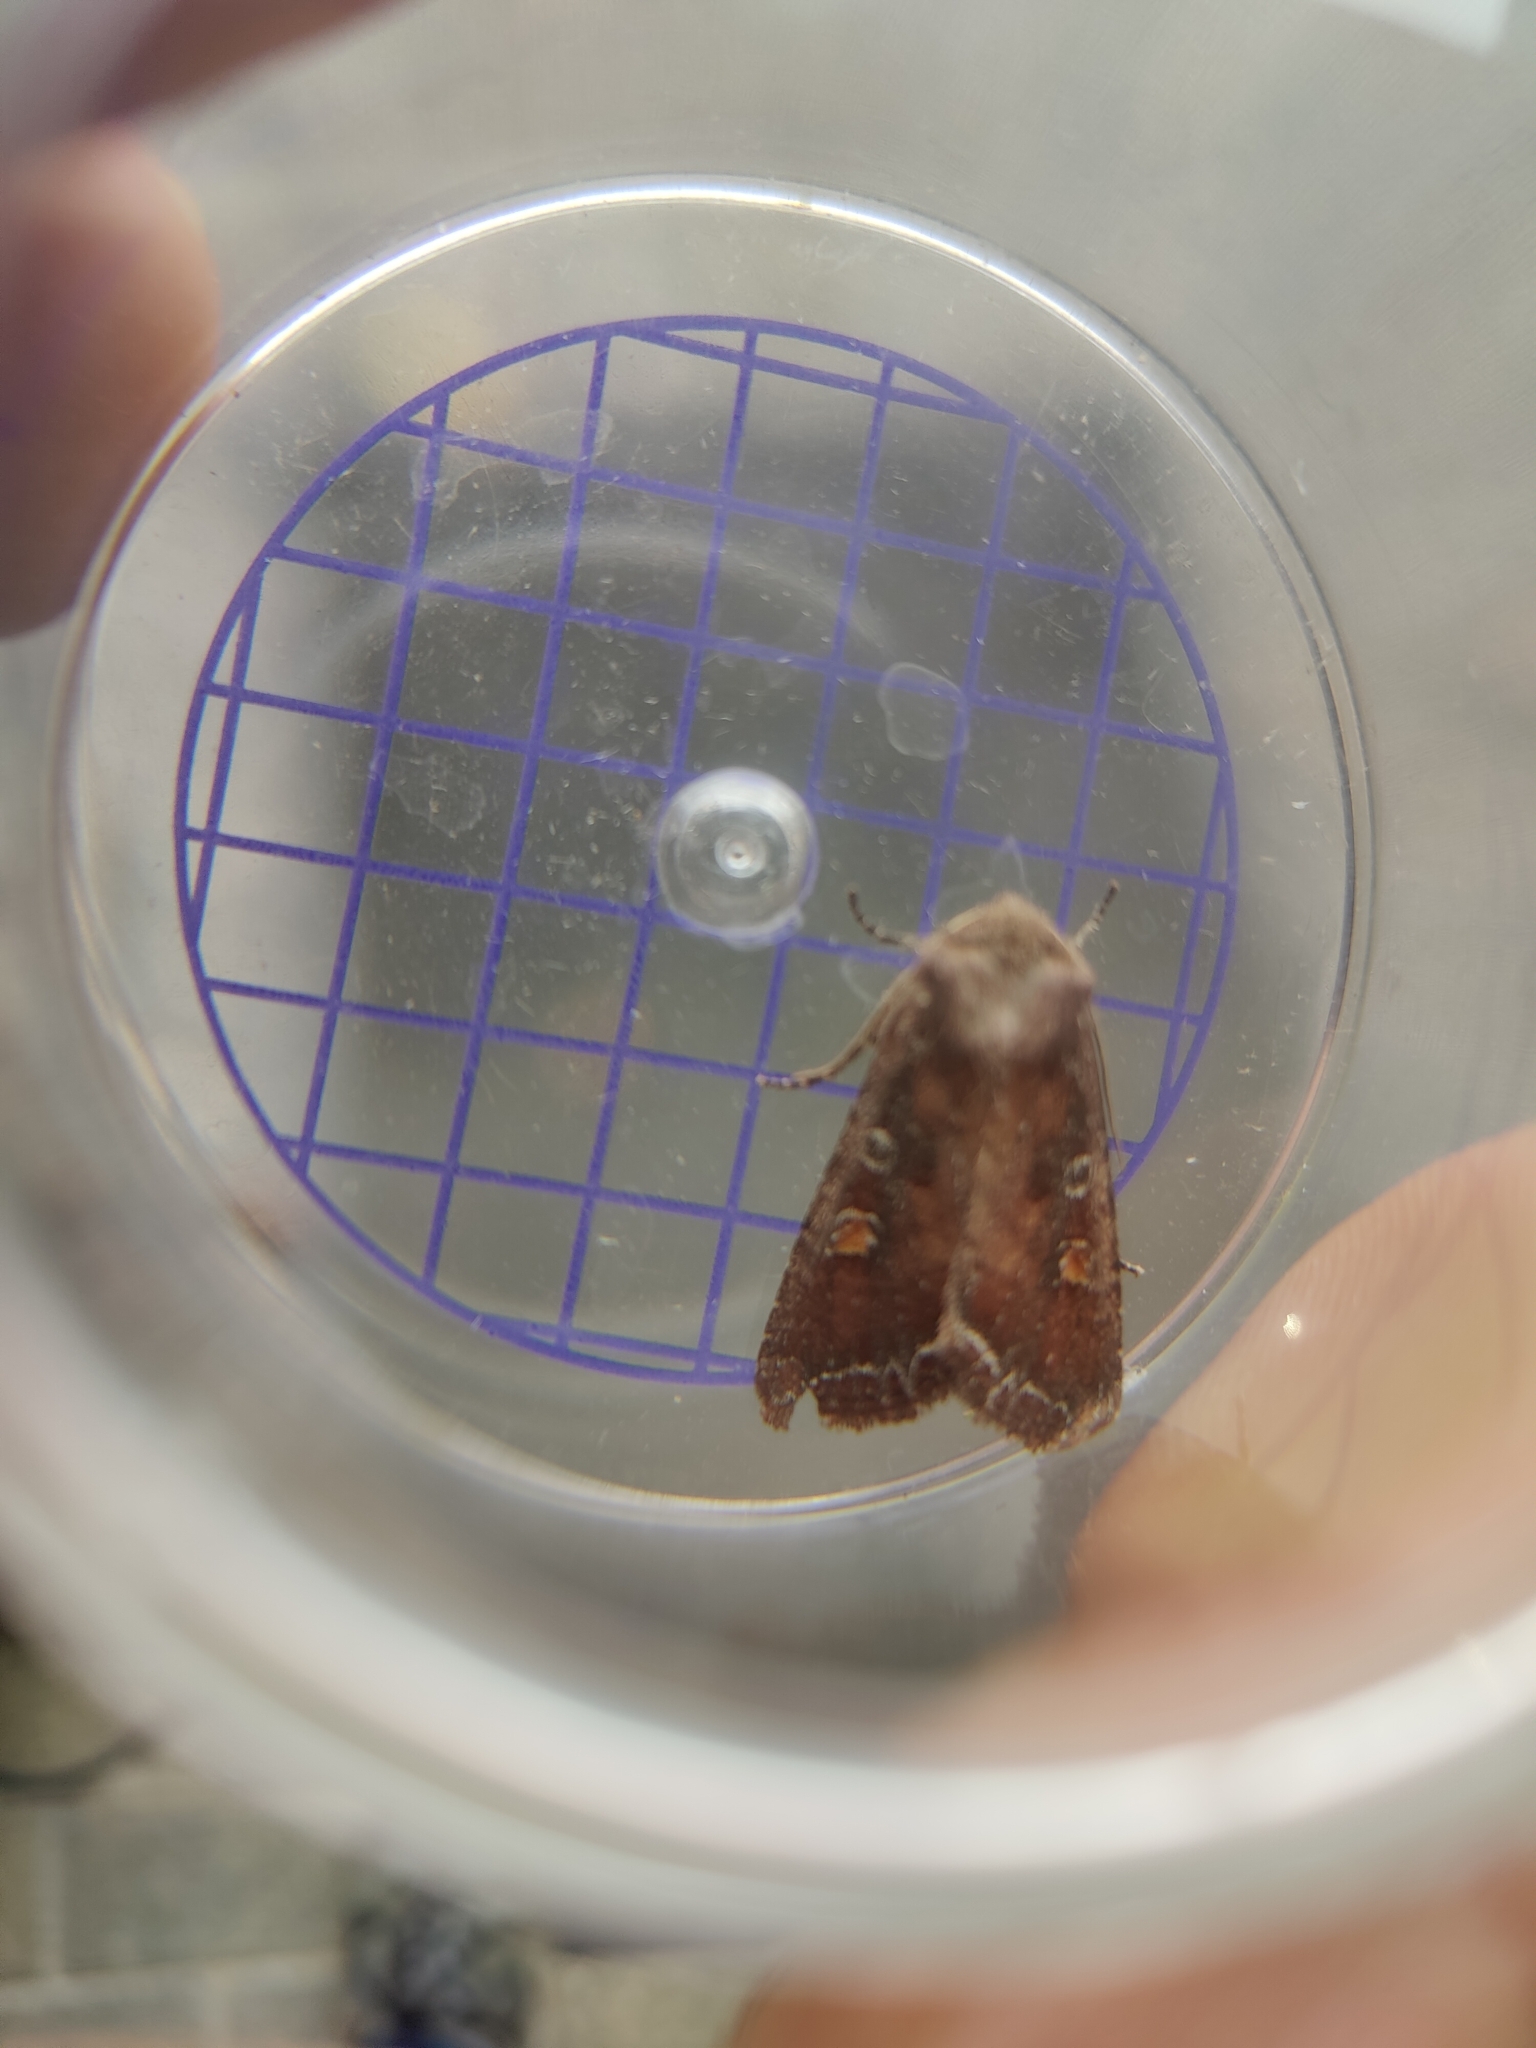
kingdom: Animalia
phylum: Arthropoda
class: Insecta
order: Lepidoptera
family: Noctuidae
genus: Lacanobia
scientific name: Lacanobia oleracea
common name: Bright-line brown-eye
